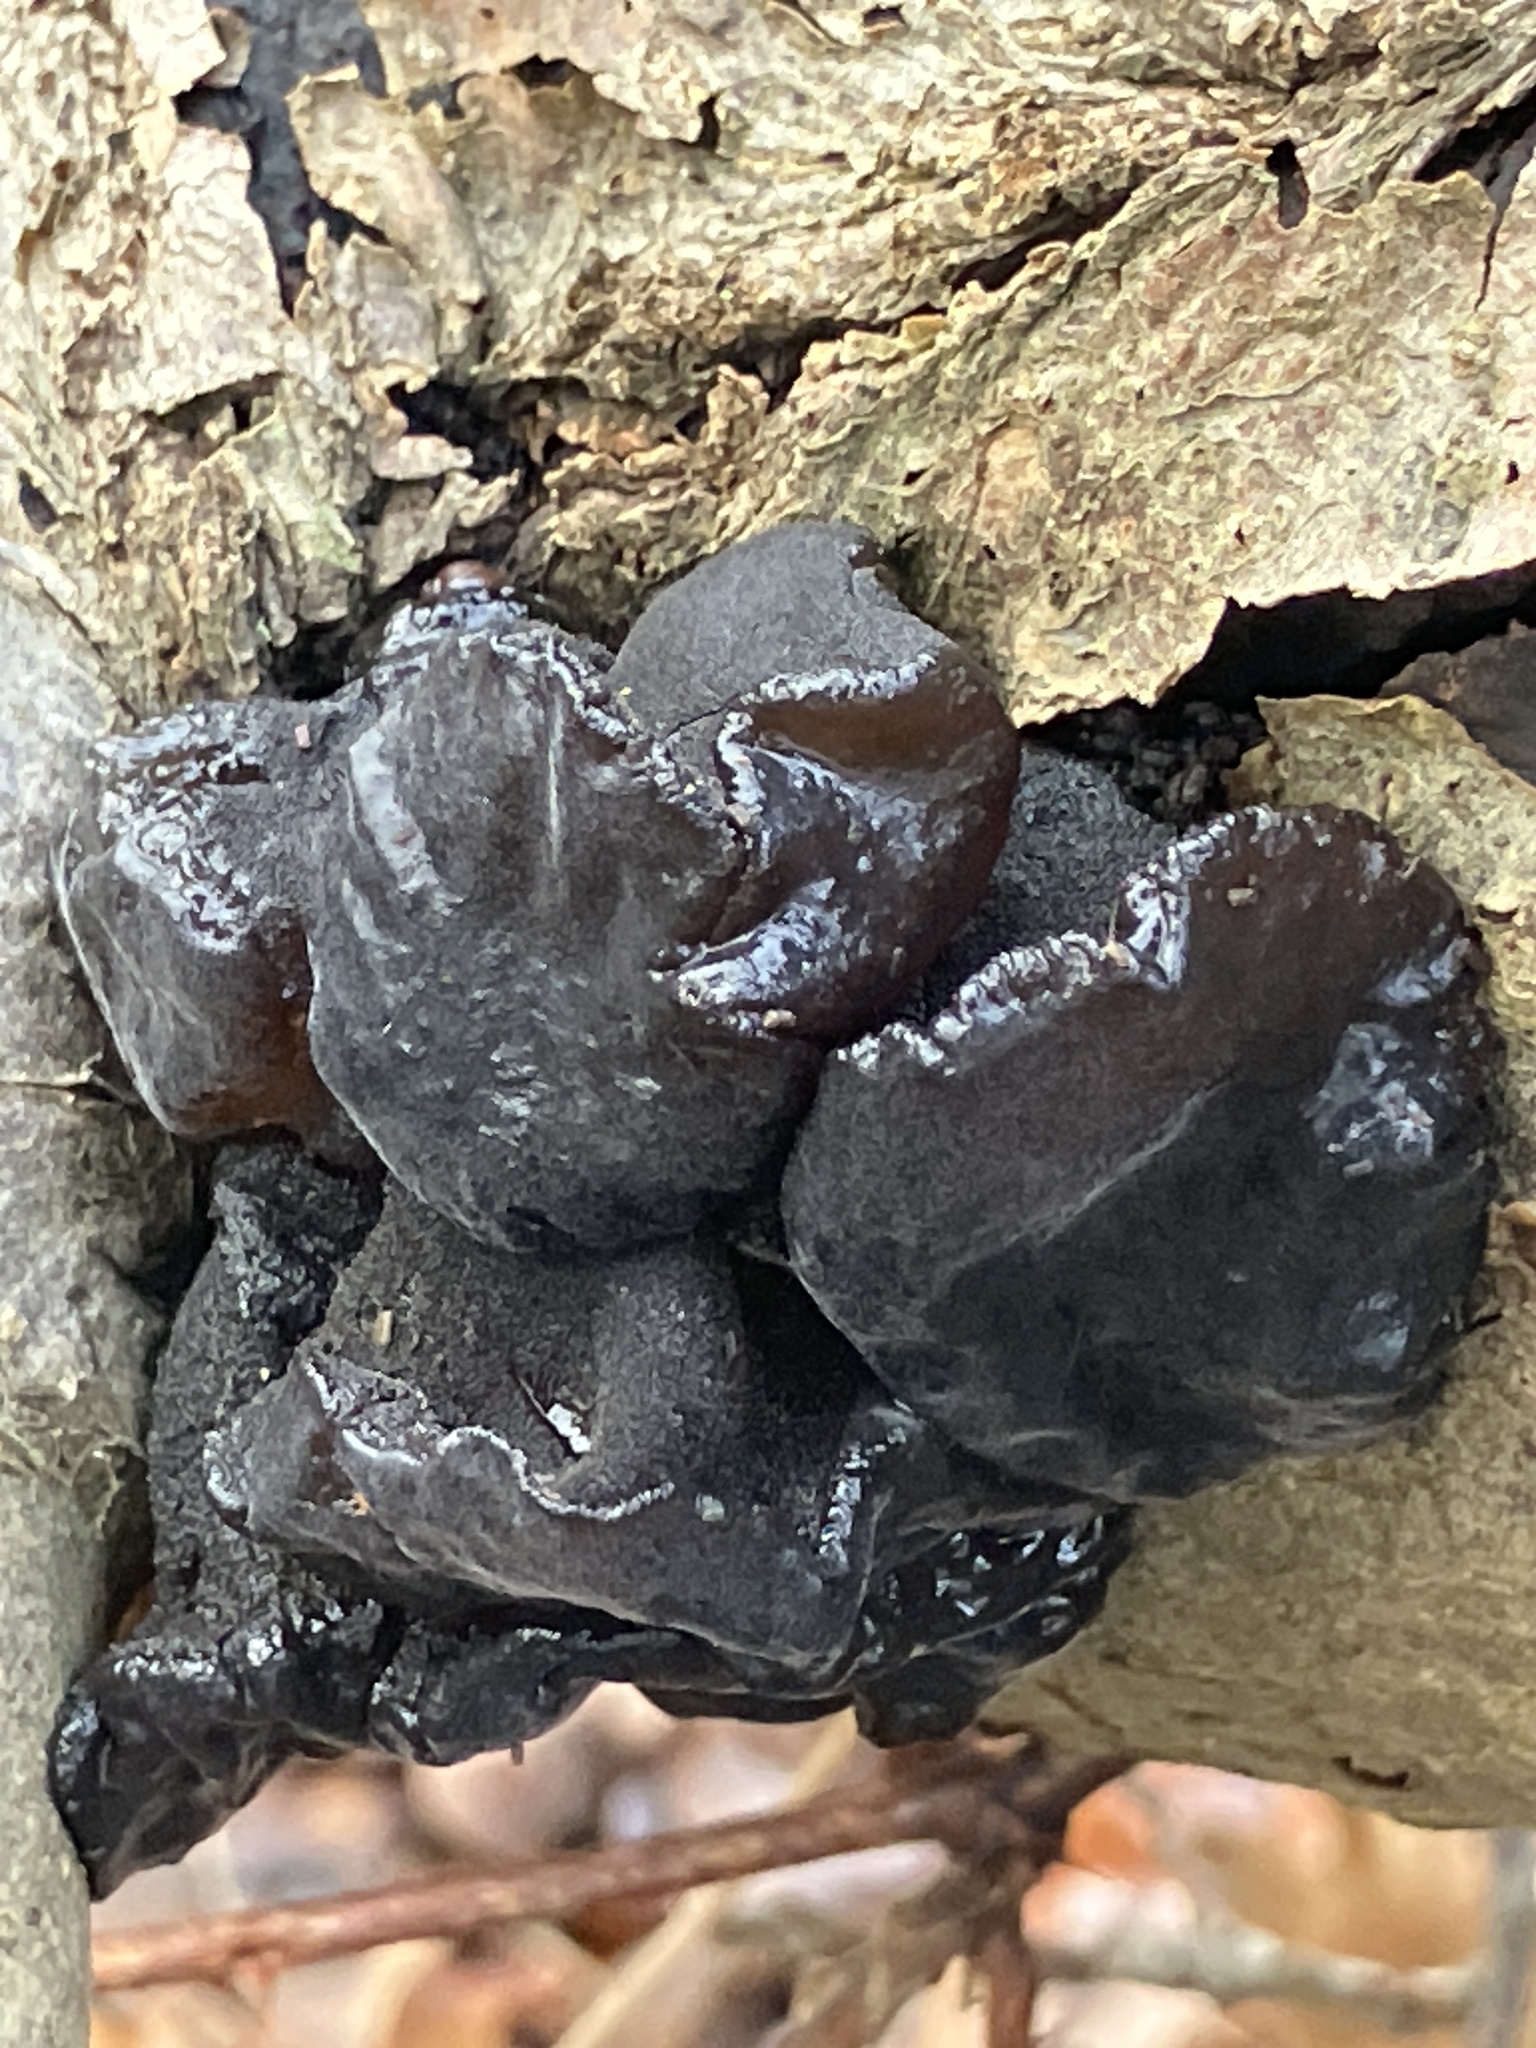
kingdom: Fungi
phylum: Basidiomycota
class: Agaricomycetes
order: Auriculariales
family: Auriculariaceae
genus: Exidia
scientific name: Exidia glandulosa
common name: Witches' butter
